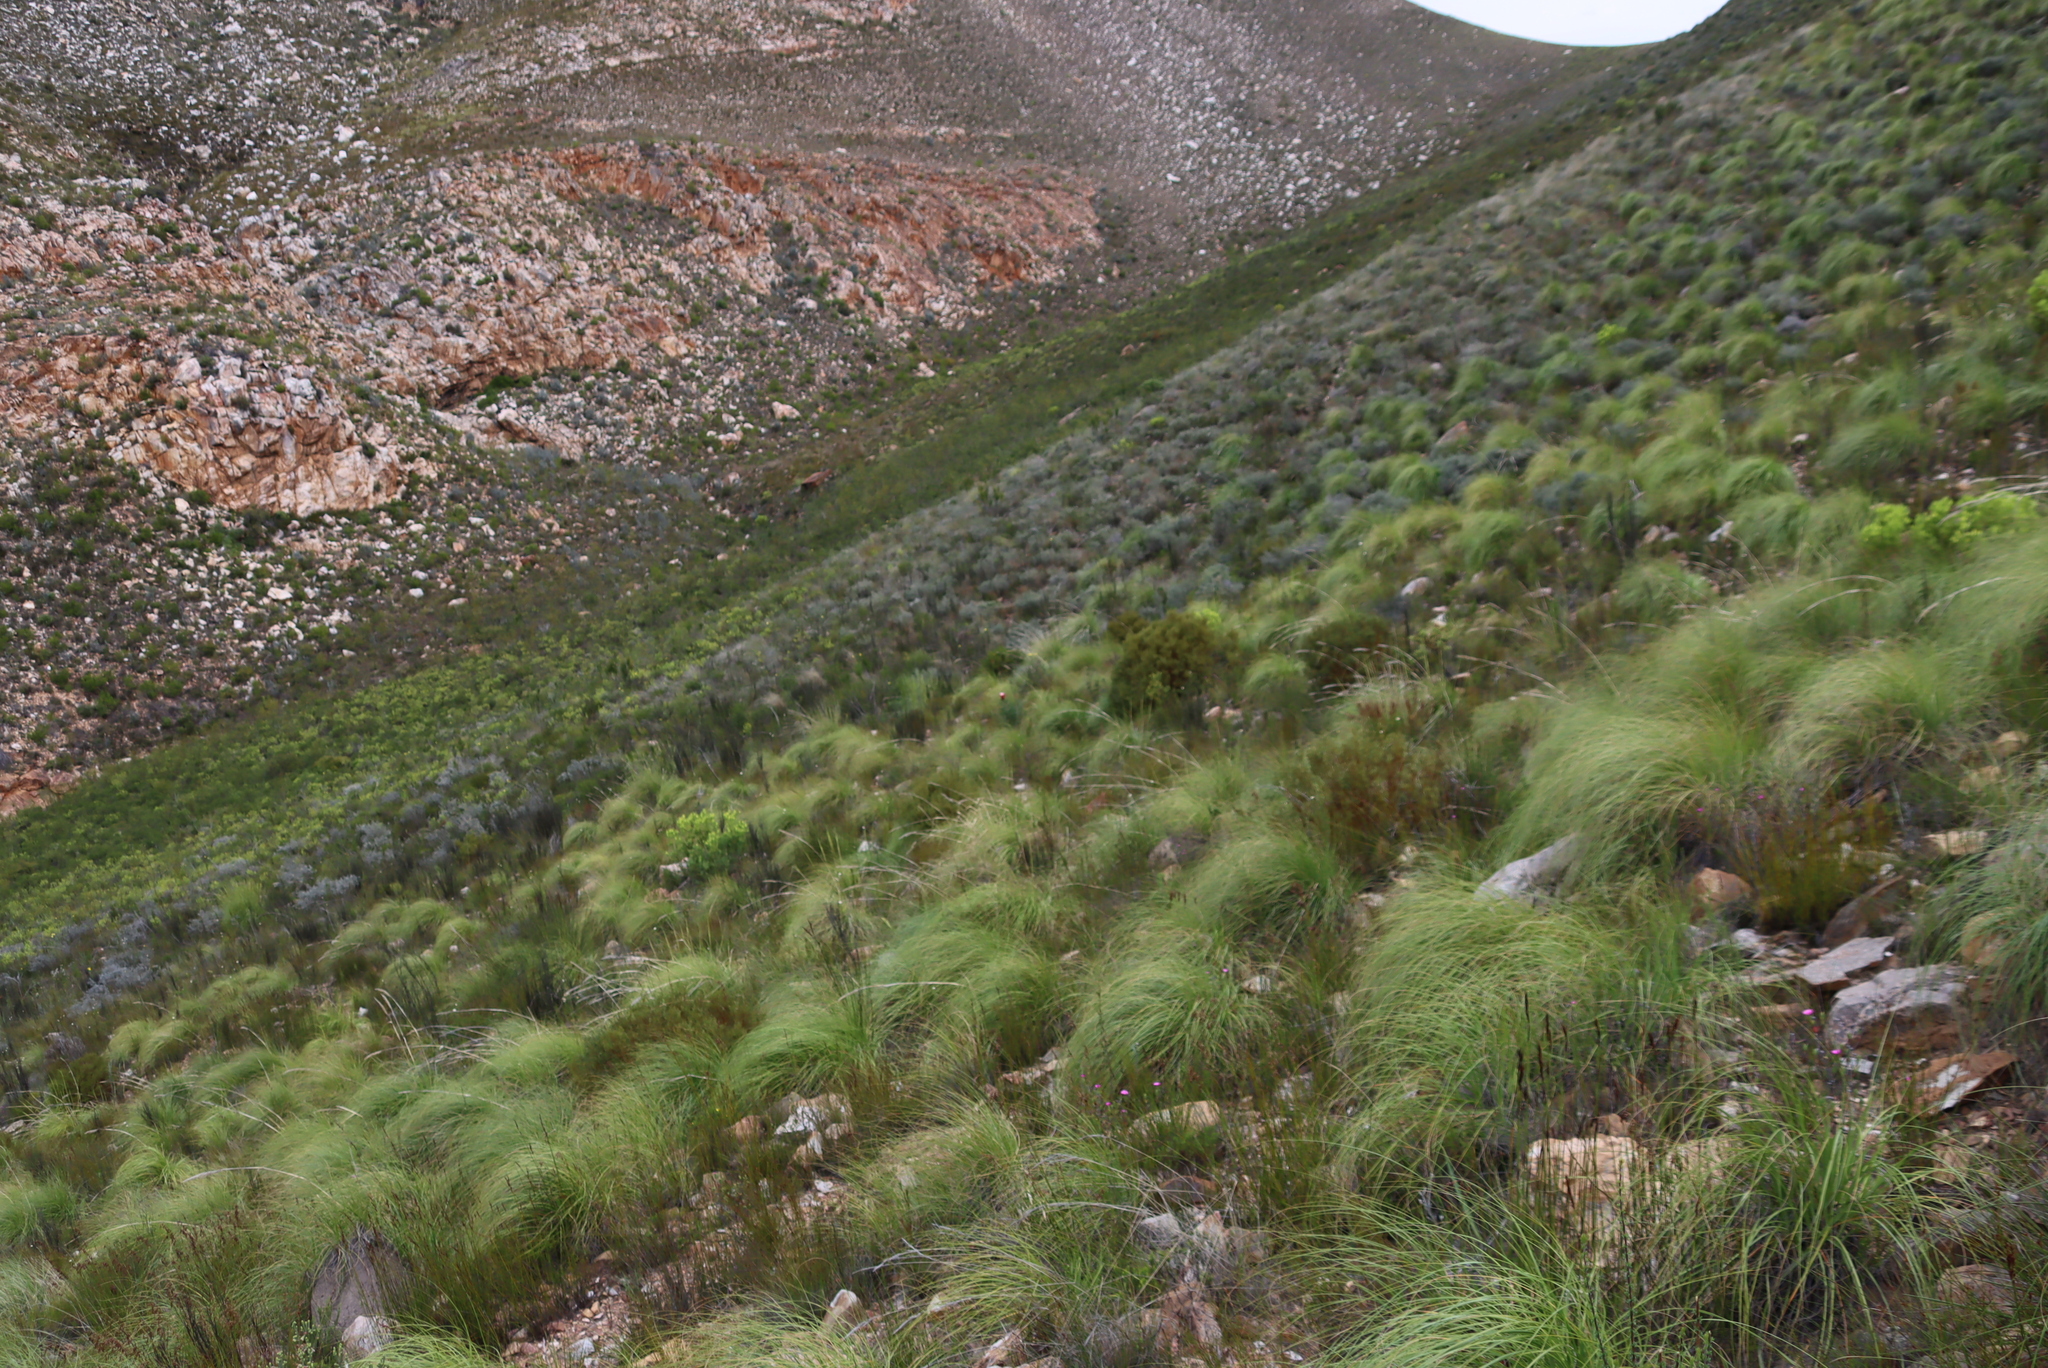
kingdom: Plantae
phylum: Tracheophyta
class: Magnoliopsida
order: Fabales
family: Fabaceae
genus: Cyclopia
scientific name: Cyclopia intermedia
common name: Mountain tea
